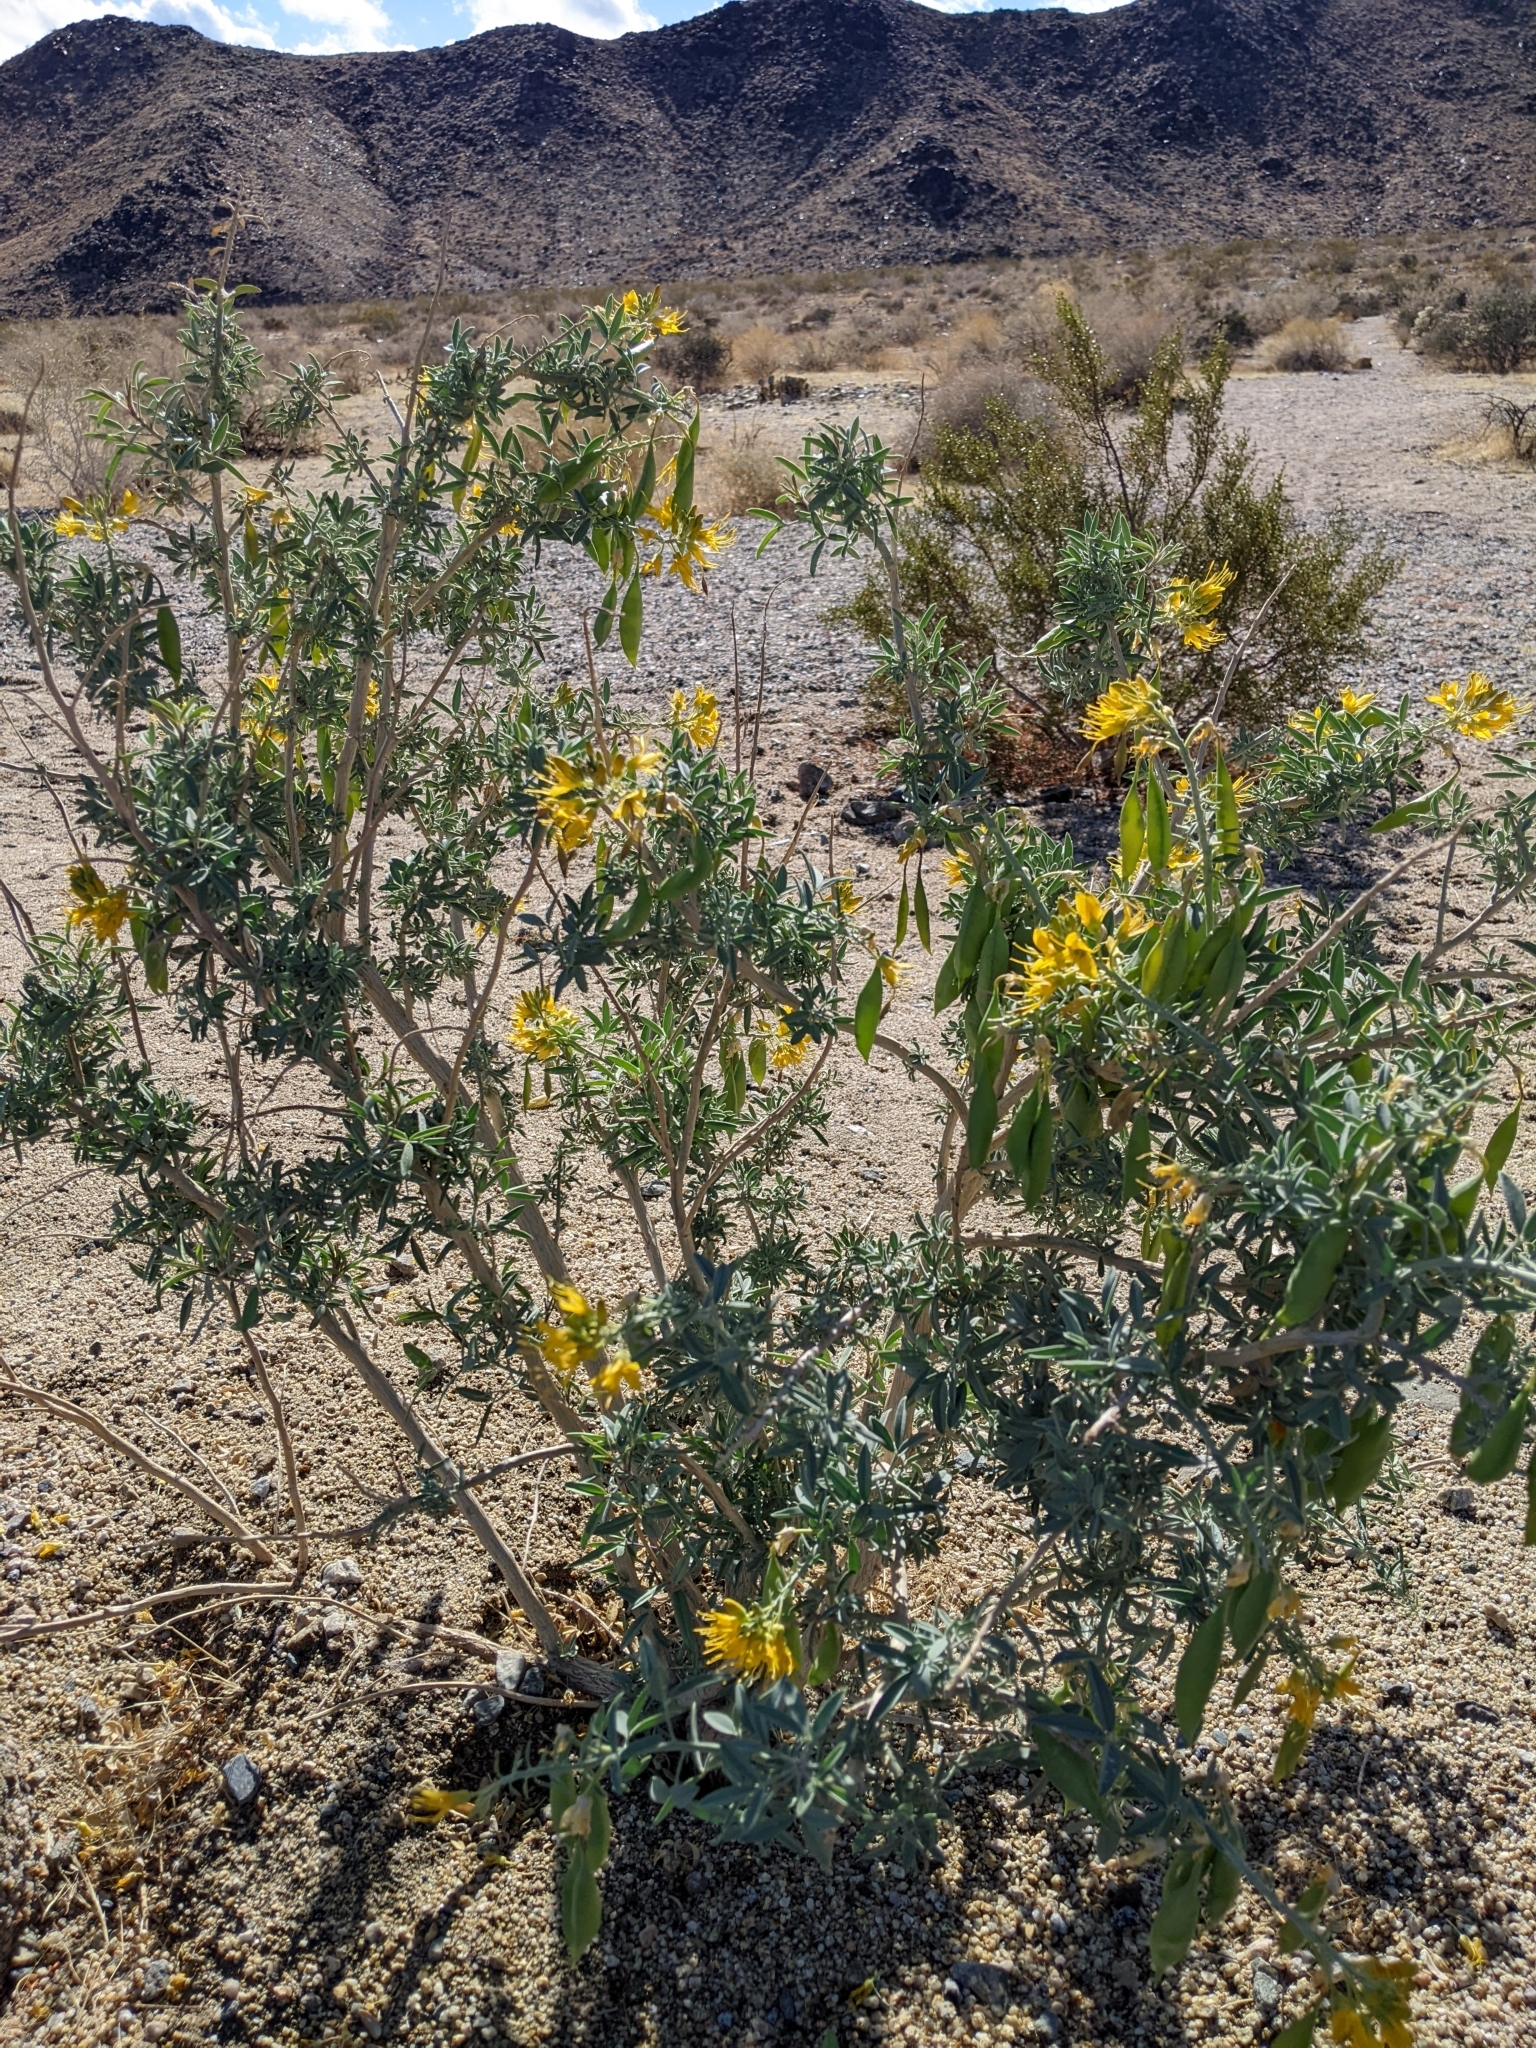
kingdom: Plantae
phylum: Tracheophyta
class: Magnoliopsida
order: Brassicales
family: Cleomaceae
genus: Cleomella
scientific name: Cleomella arborea
